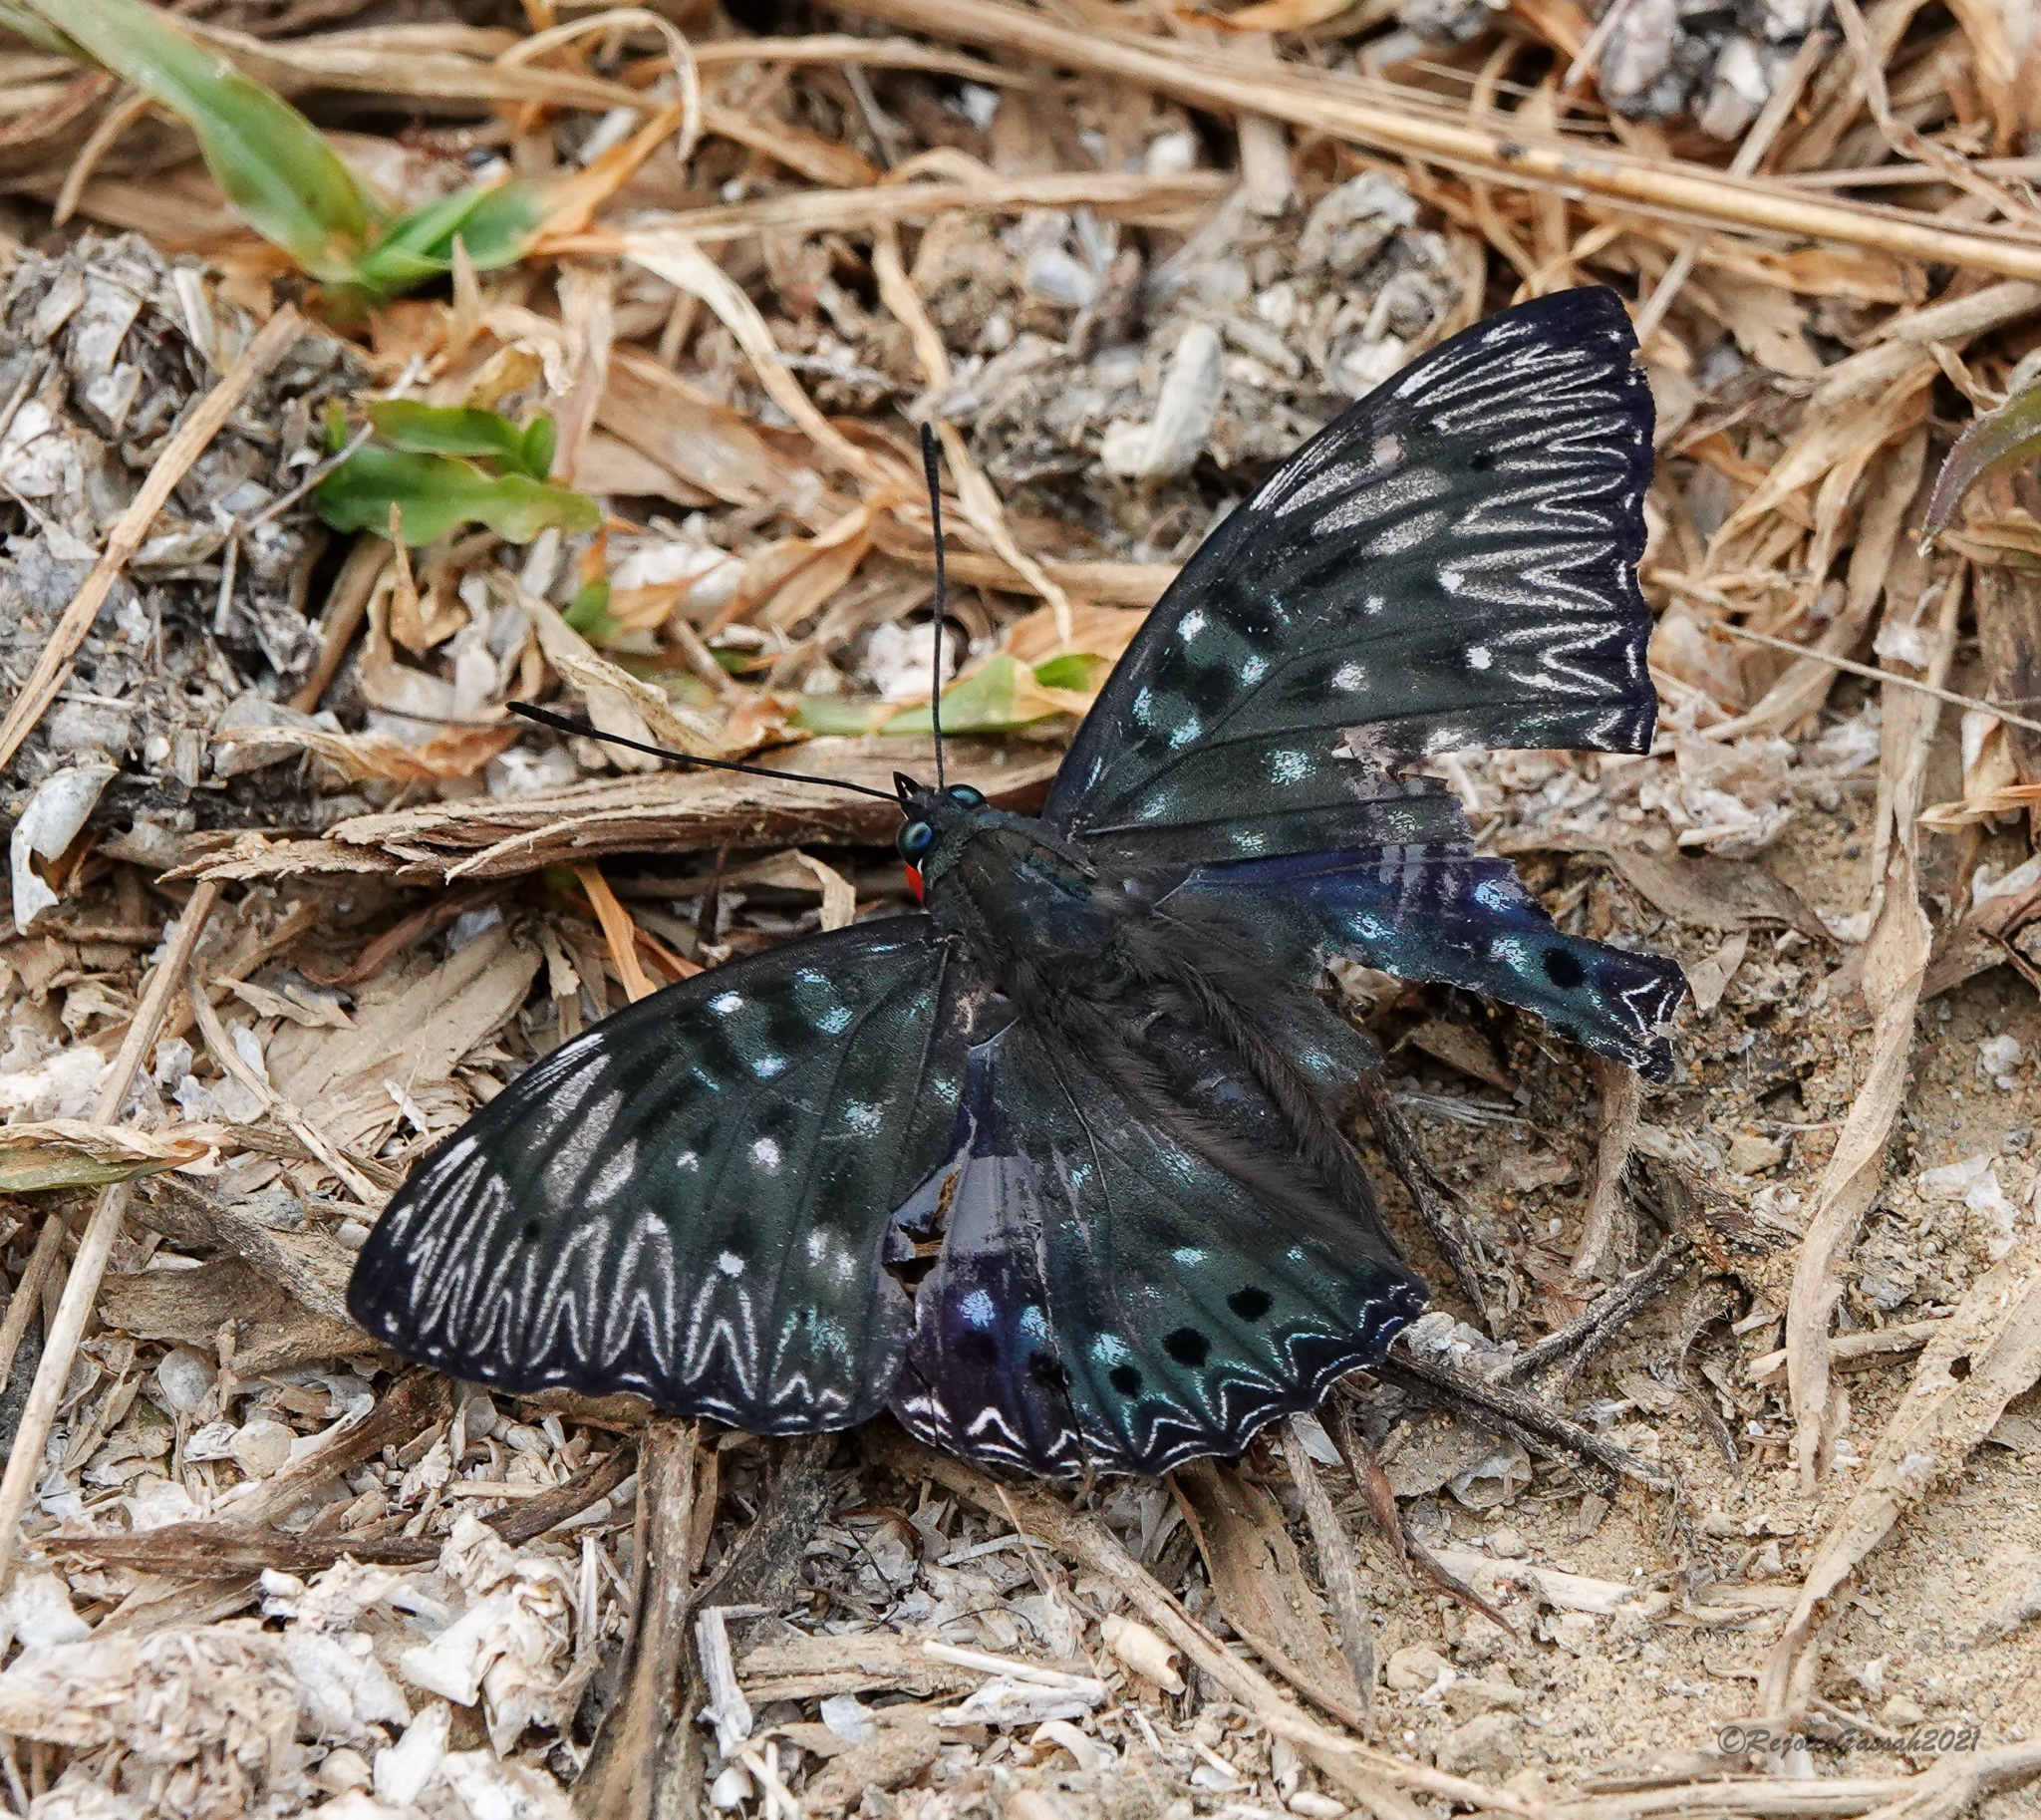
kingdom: Animalia
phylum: Arthropoda
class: Insecta
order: Lepidoptera
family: Nymphalidae
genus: Dichorragia
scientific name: Dichorragia nesimachus
